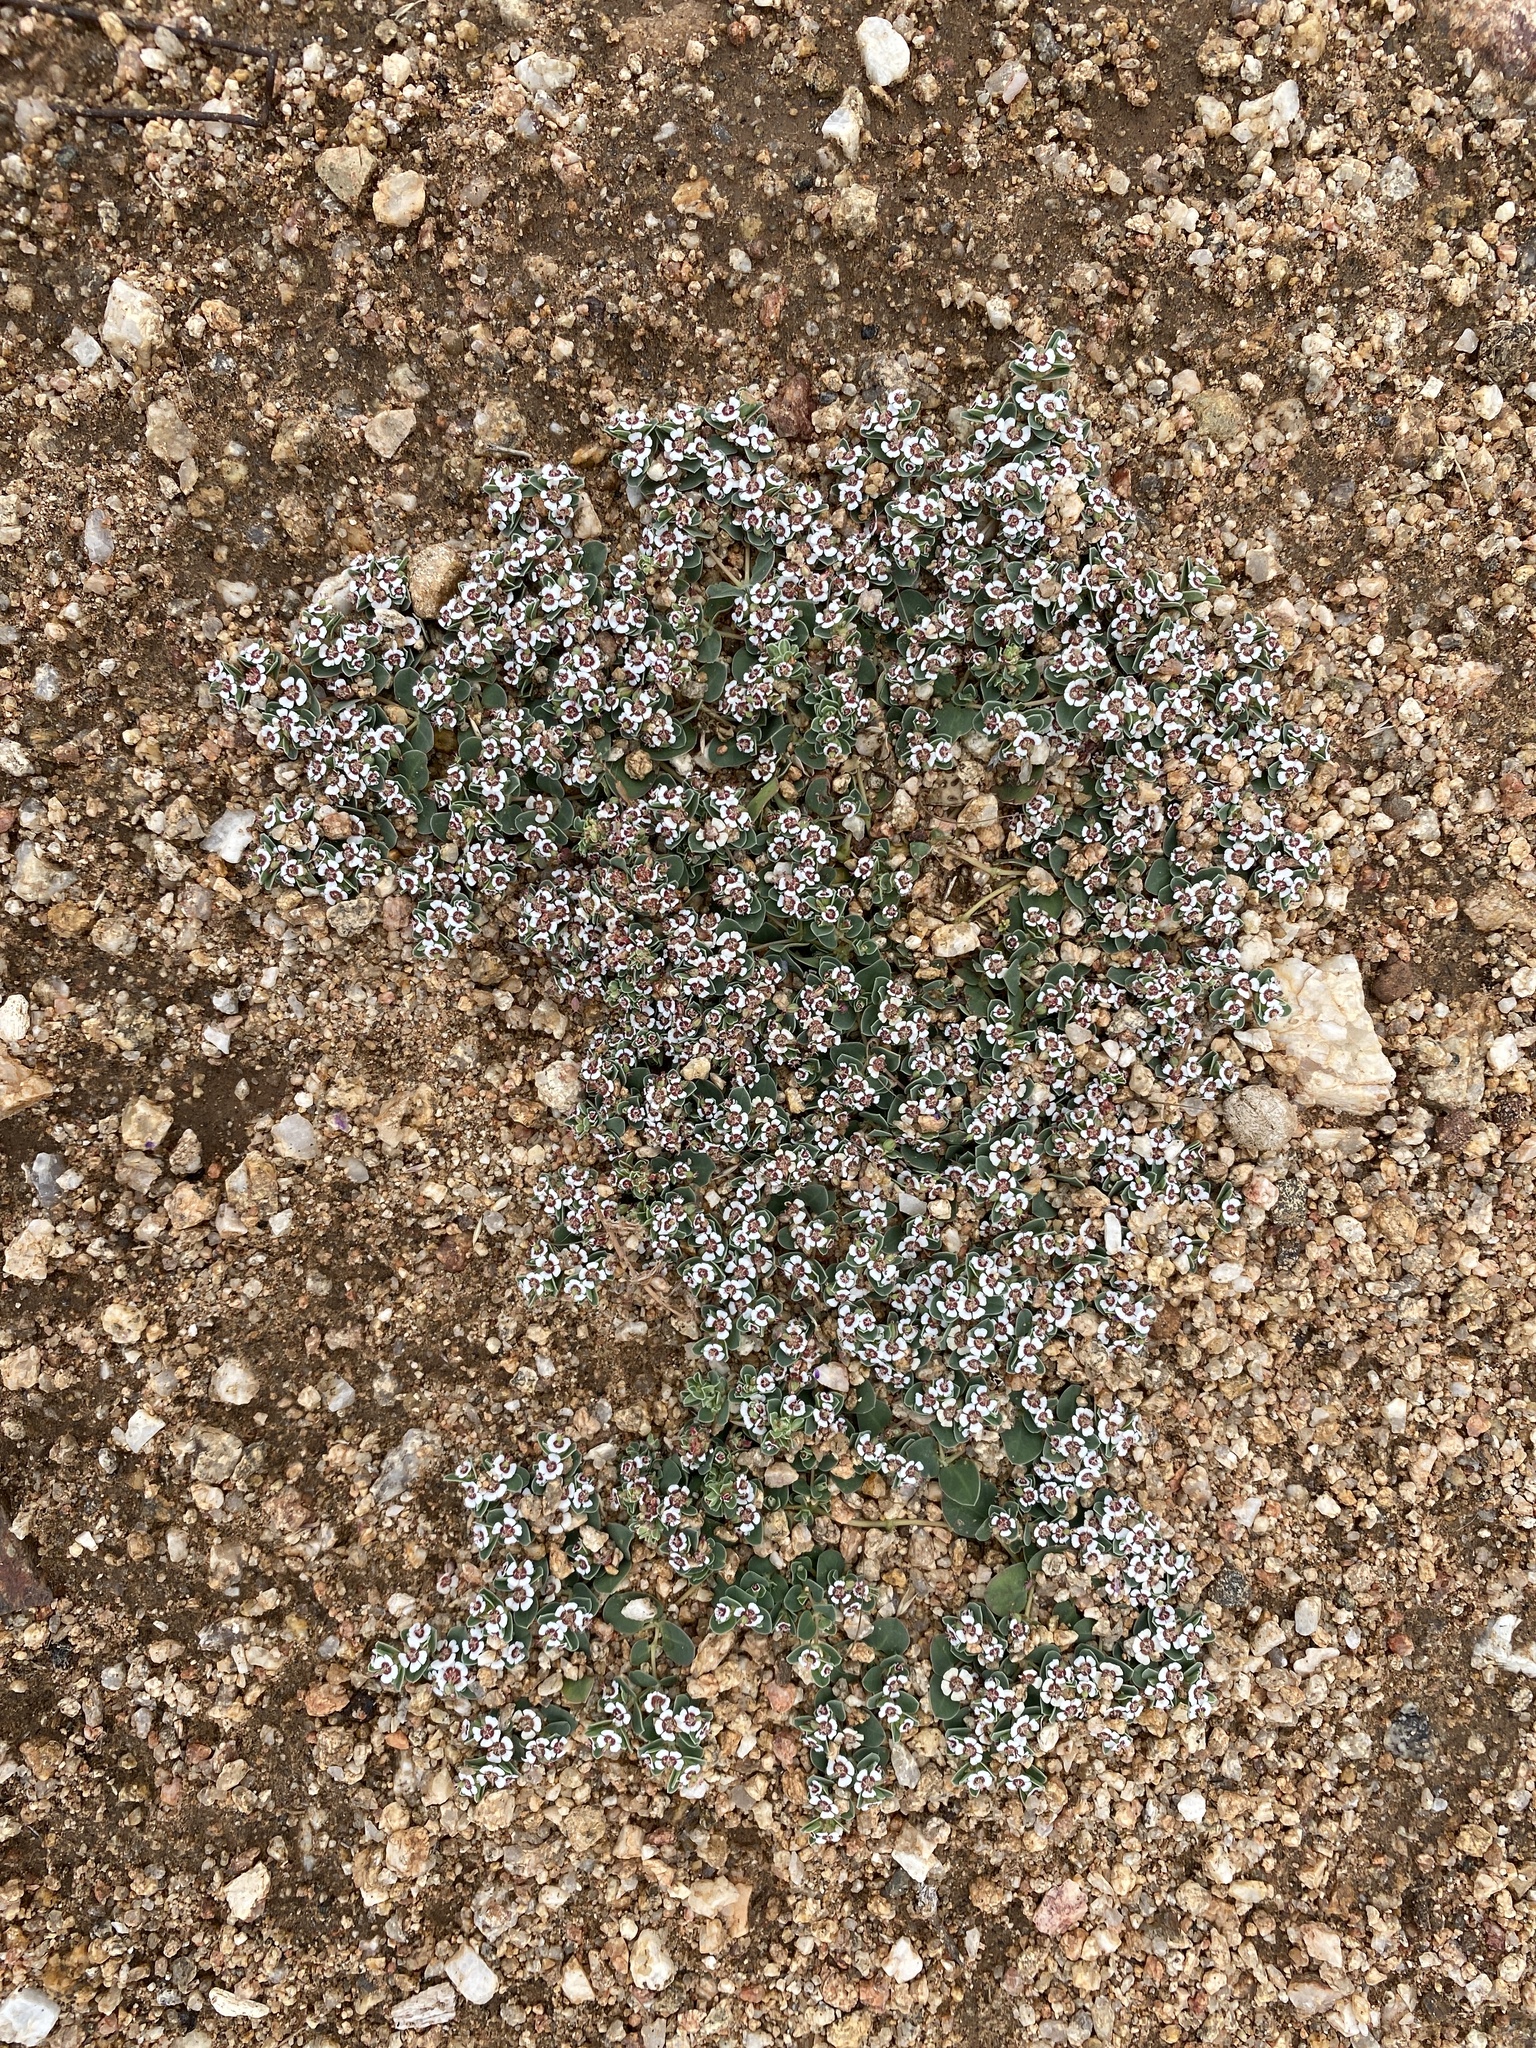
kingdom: Plantae
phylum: Tracheophyta
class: Magnoliopsida
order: Malpighiales
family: Euphorbiaceae
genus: Euphorbia
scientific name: Euphorbia albomarginata
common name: Whitemargin sandmat
